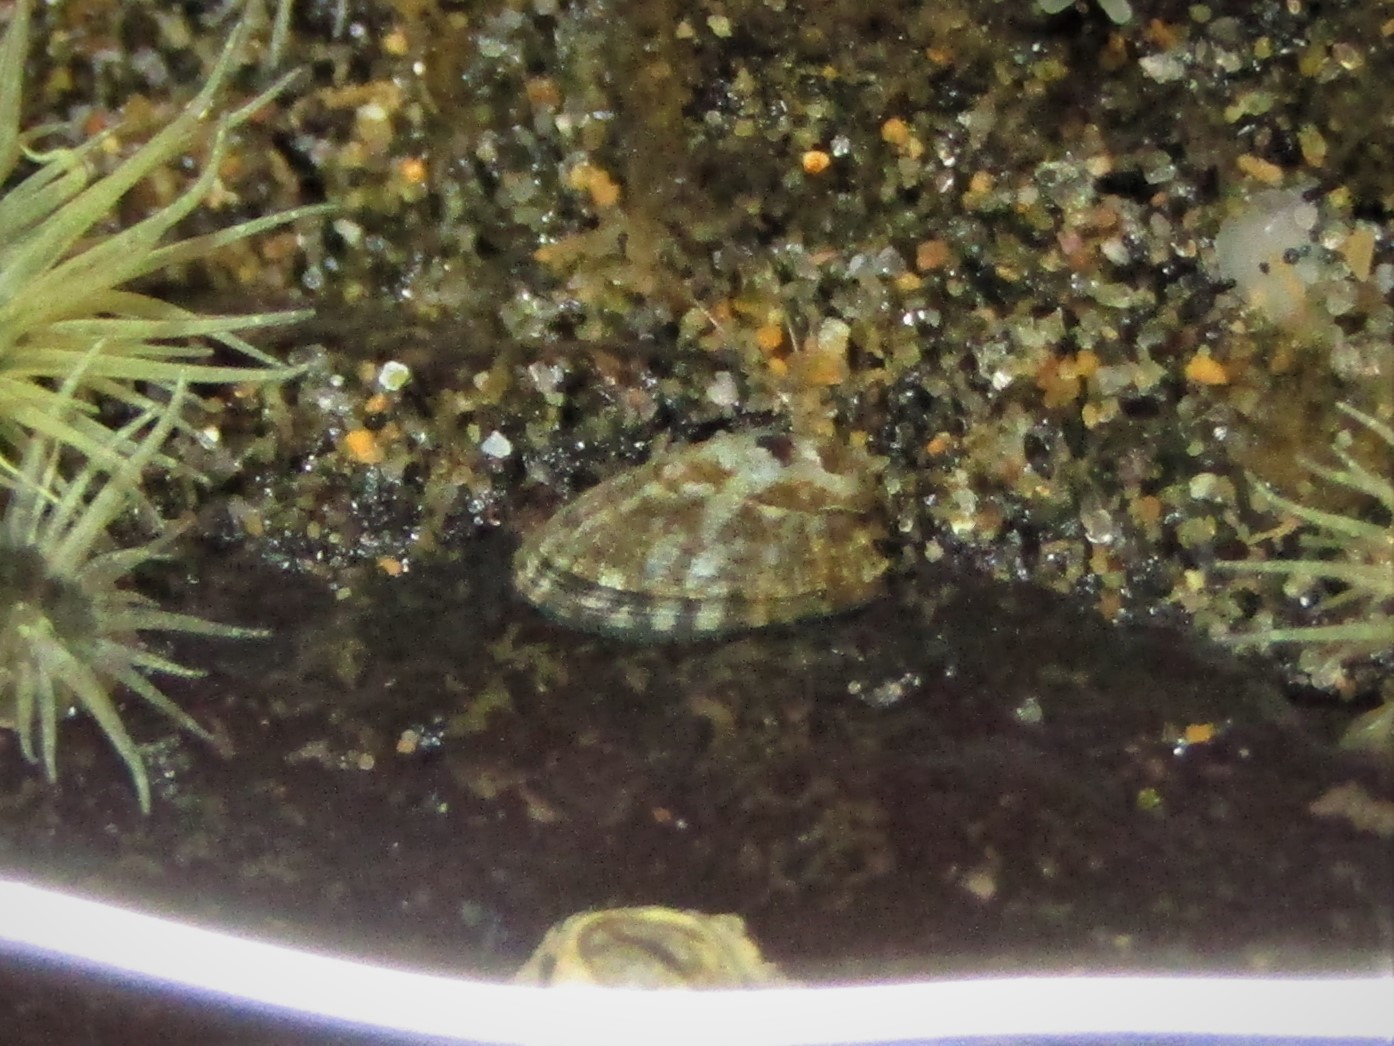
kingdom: Animalia
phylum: Mollusca
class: Gastropoda
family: Lottiidae
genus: Notoacmea
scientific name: Notoacmea parviconoidea
